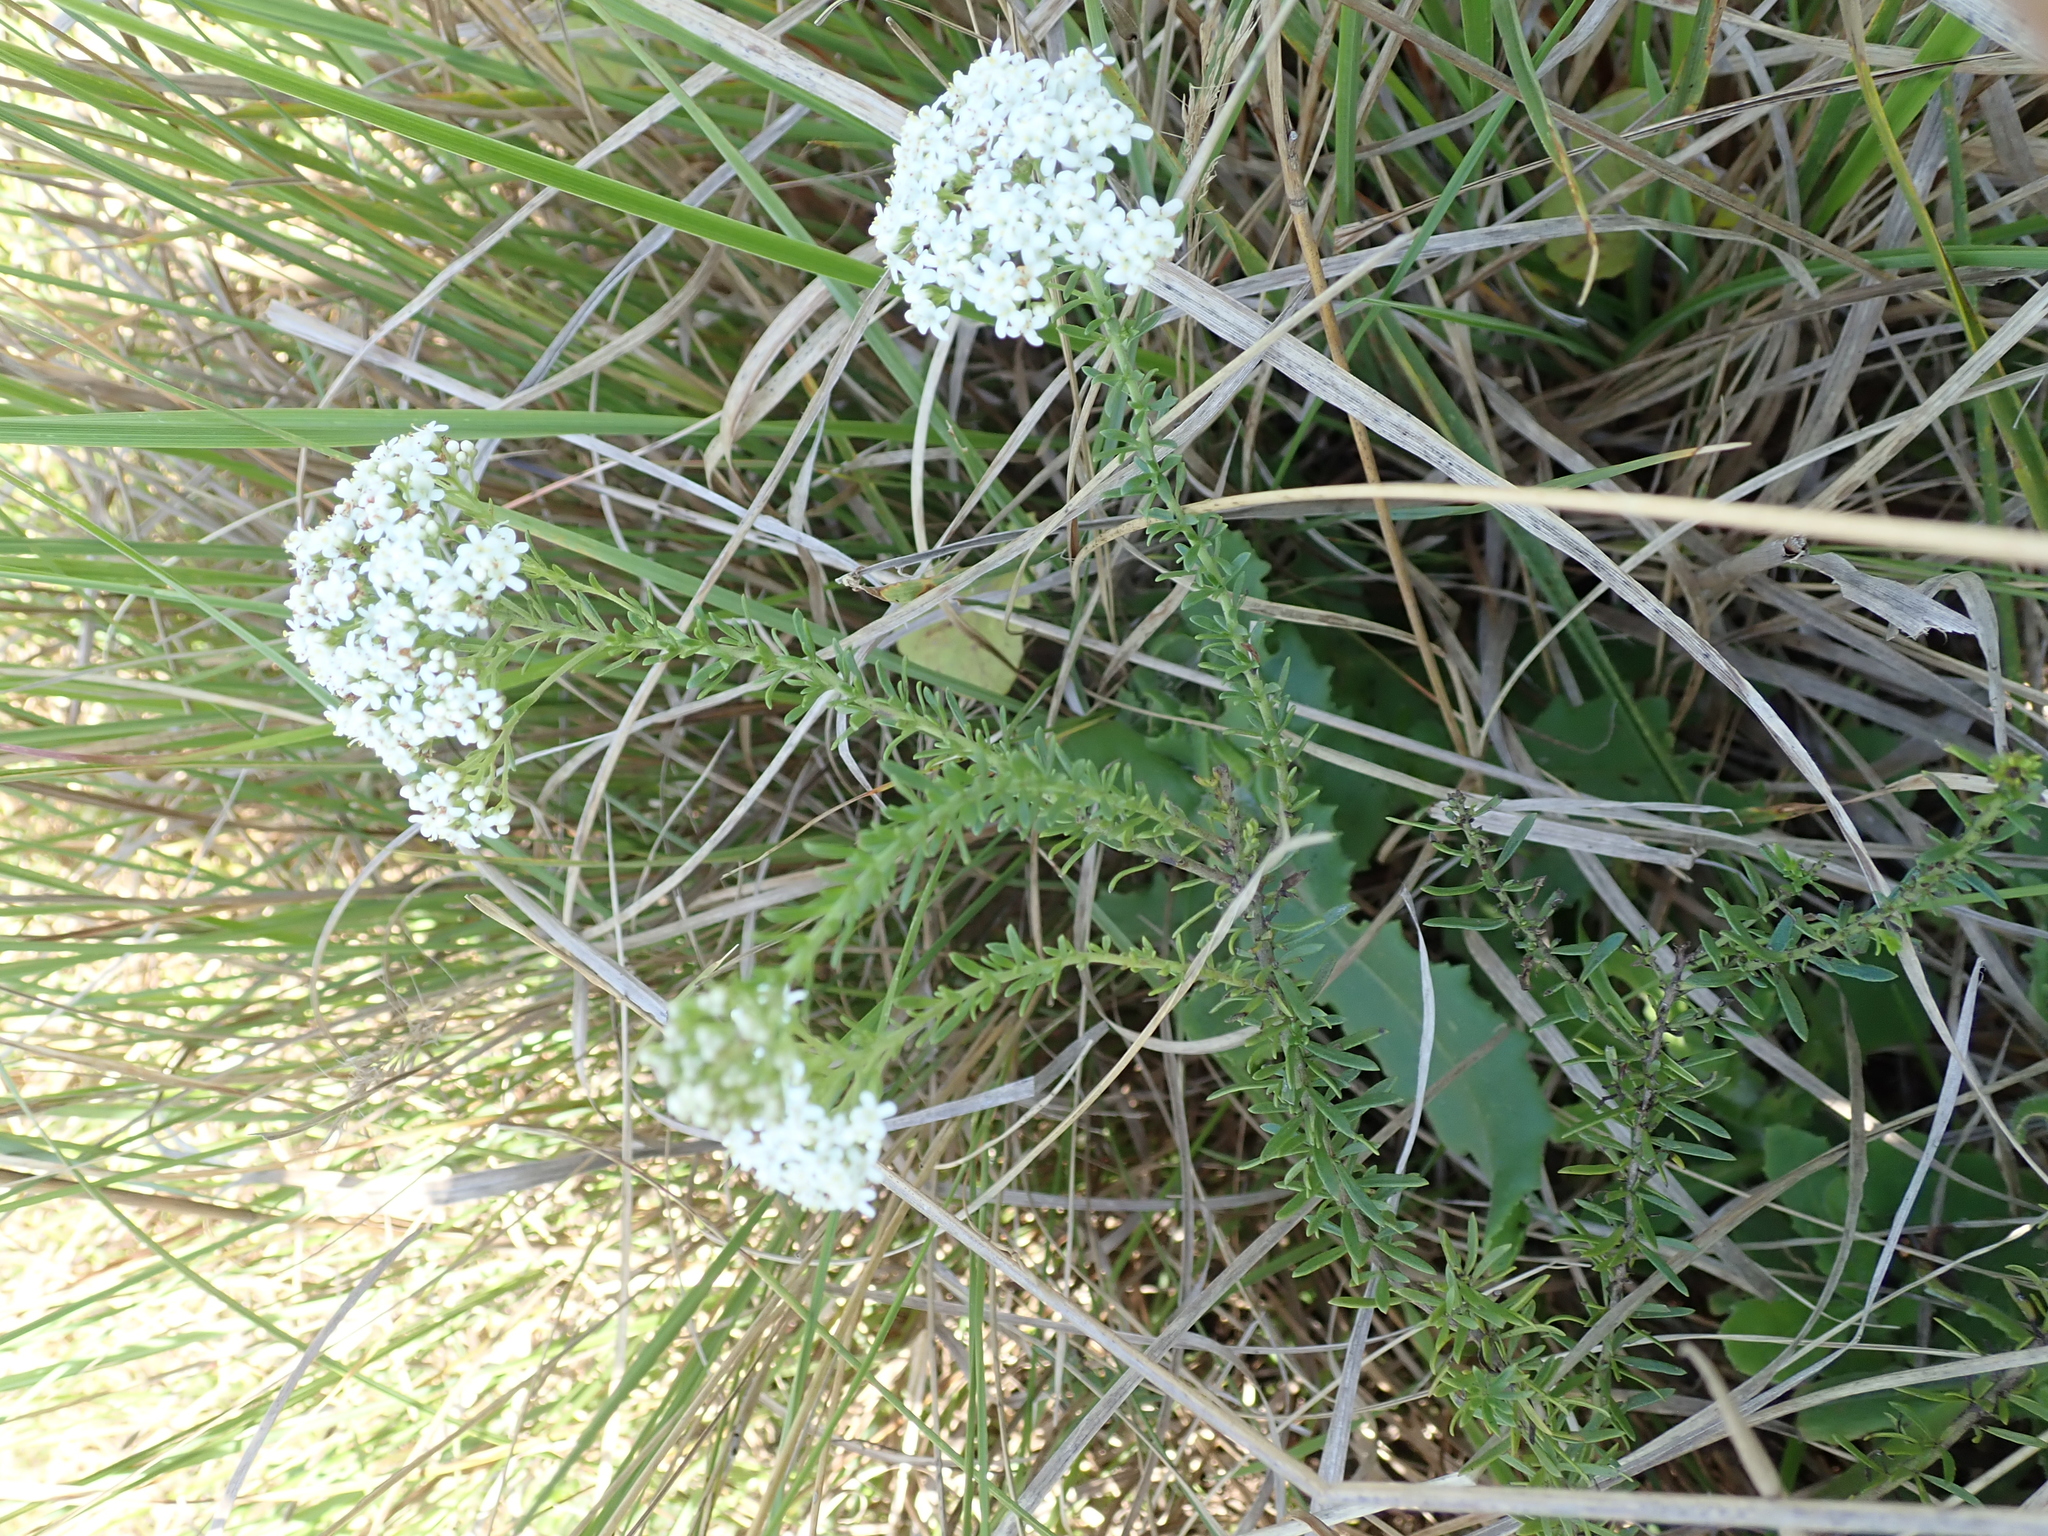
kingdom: Plantae
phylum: Tracheophyta
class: Magnoliopsida
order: Lamiales
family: Scrophulariaceae
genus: Selago
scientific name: Selago tarachodes
